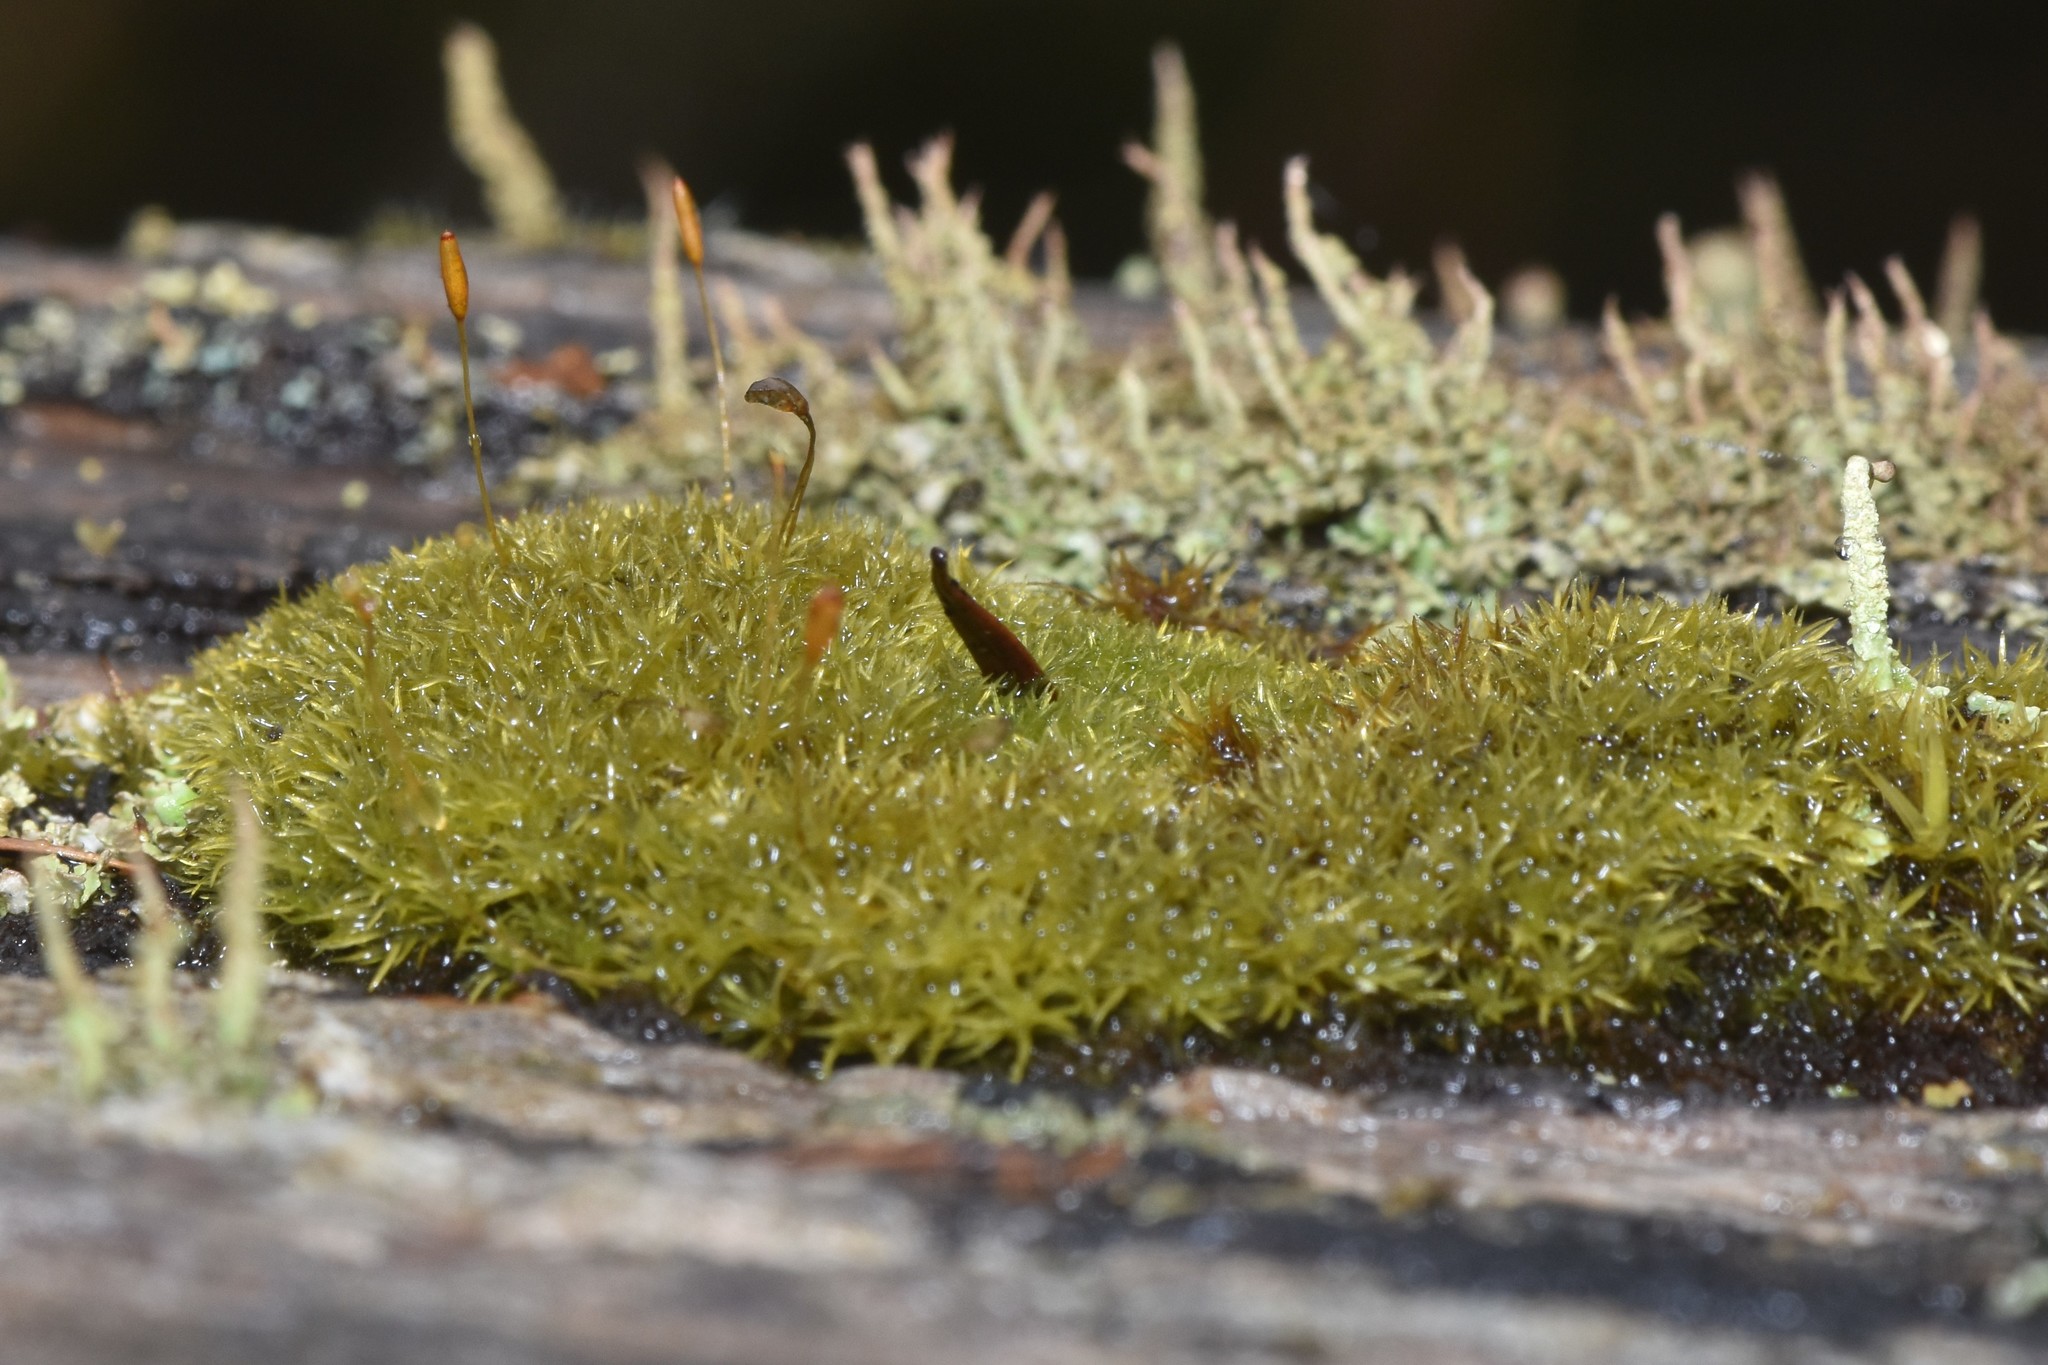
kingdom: Plantae
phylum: Bryophyta
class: Bryopsida
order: Dicranales
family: Rhabdoweisiaceae
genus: Dicranoweisia
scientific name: Dicranoweisia cirrata
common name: Common pincushion
